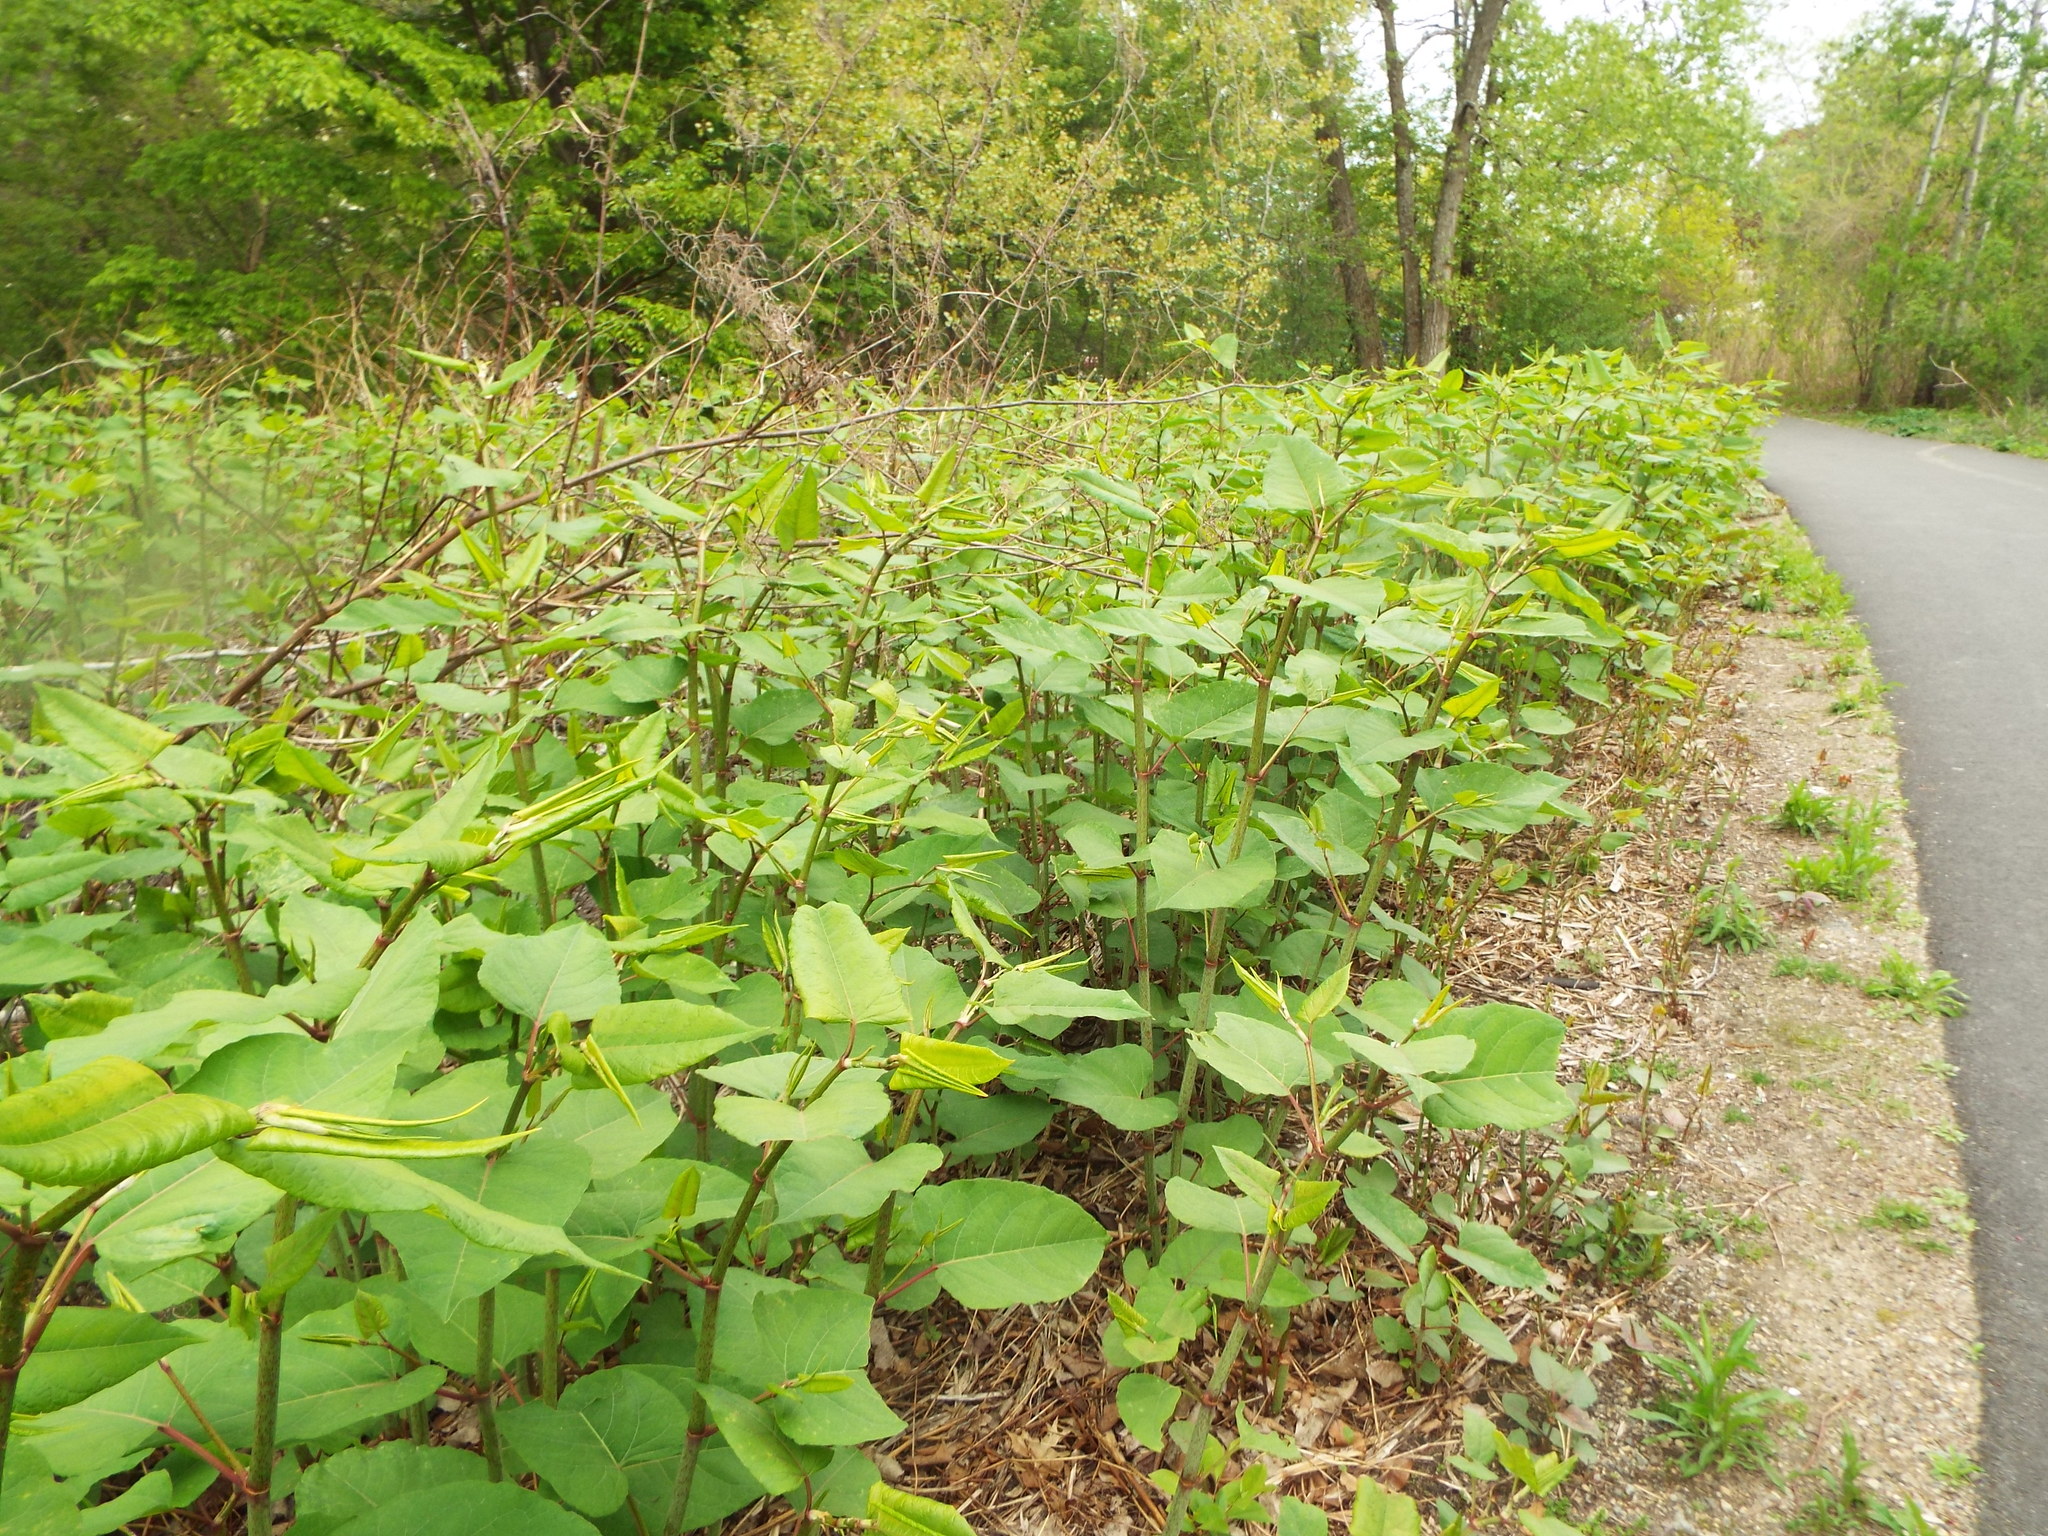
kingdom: Plantae
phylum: Tracheophyta
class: Magnoliopsida
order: Caryophyllales
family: Polygonaceae
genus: Reynoutria
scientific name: Reynoutria japonica
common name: Japanese knotweed
